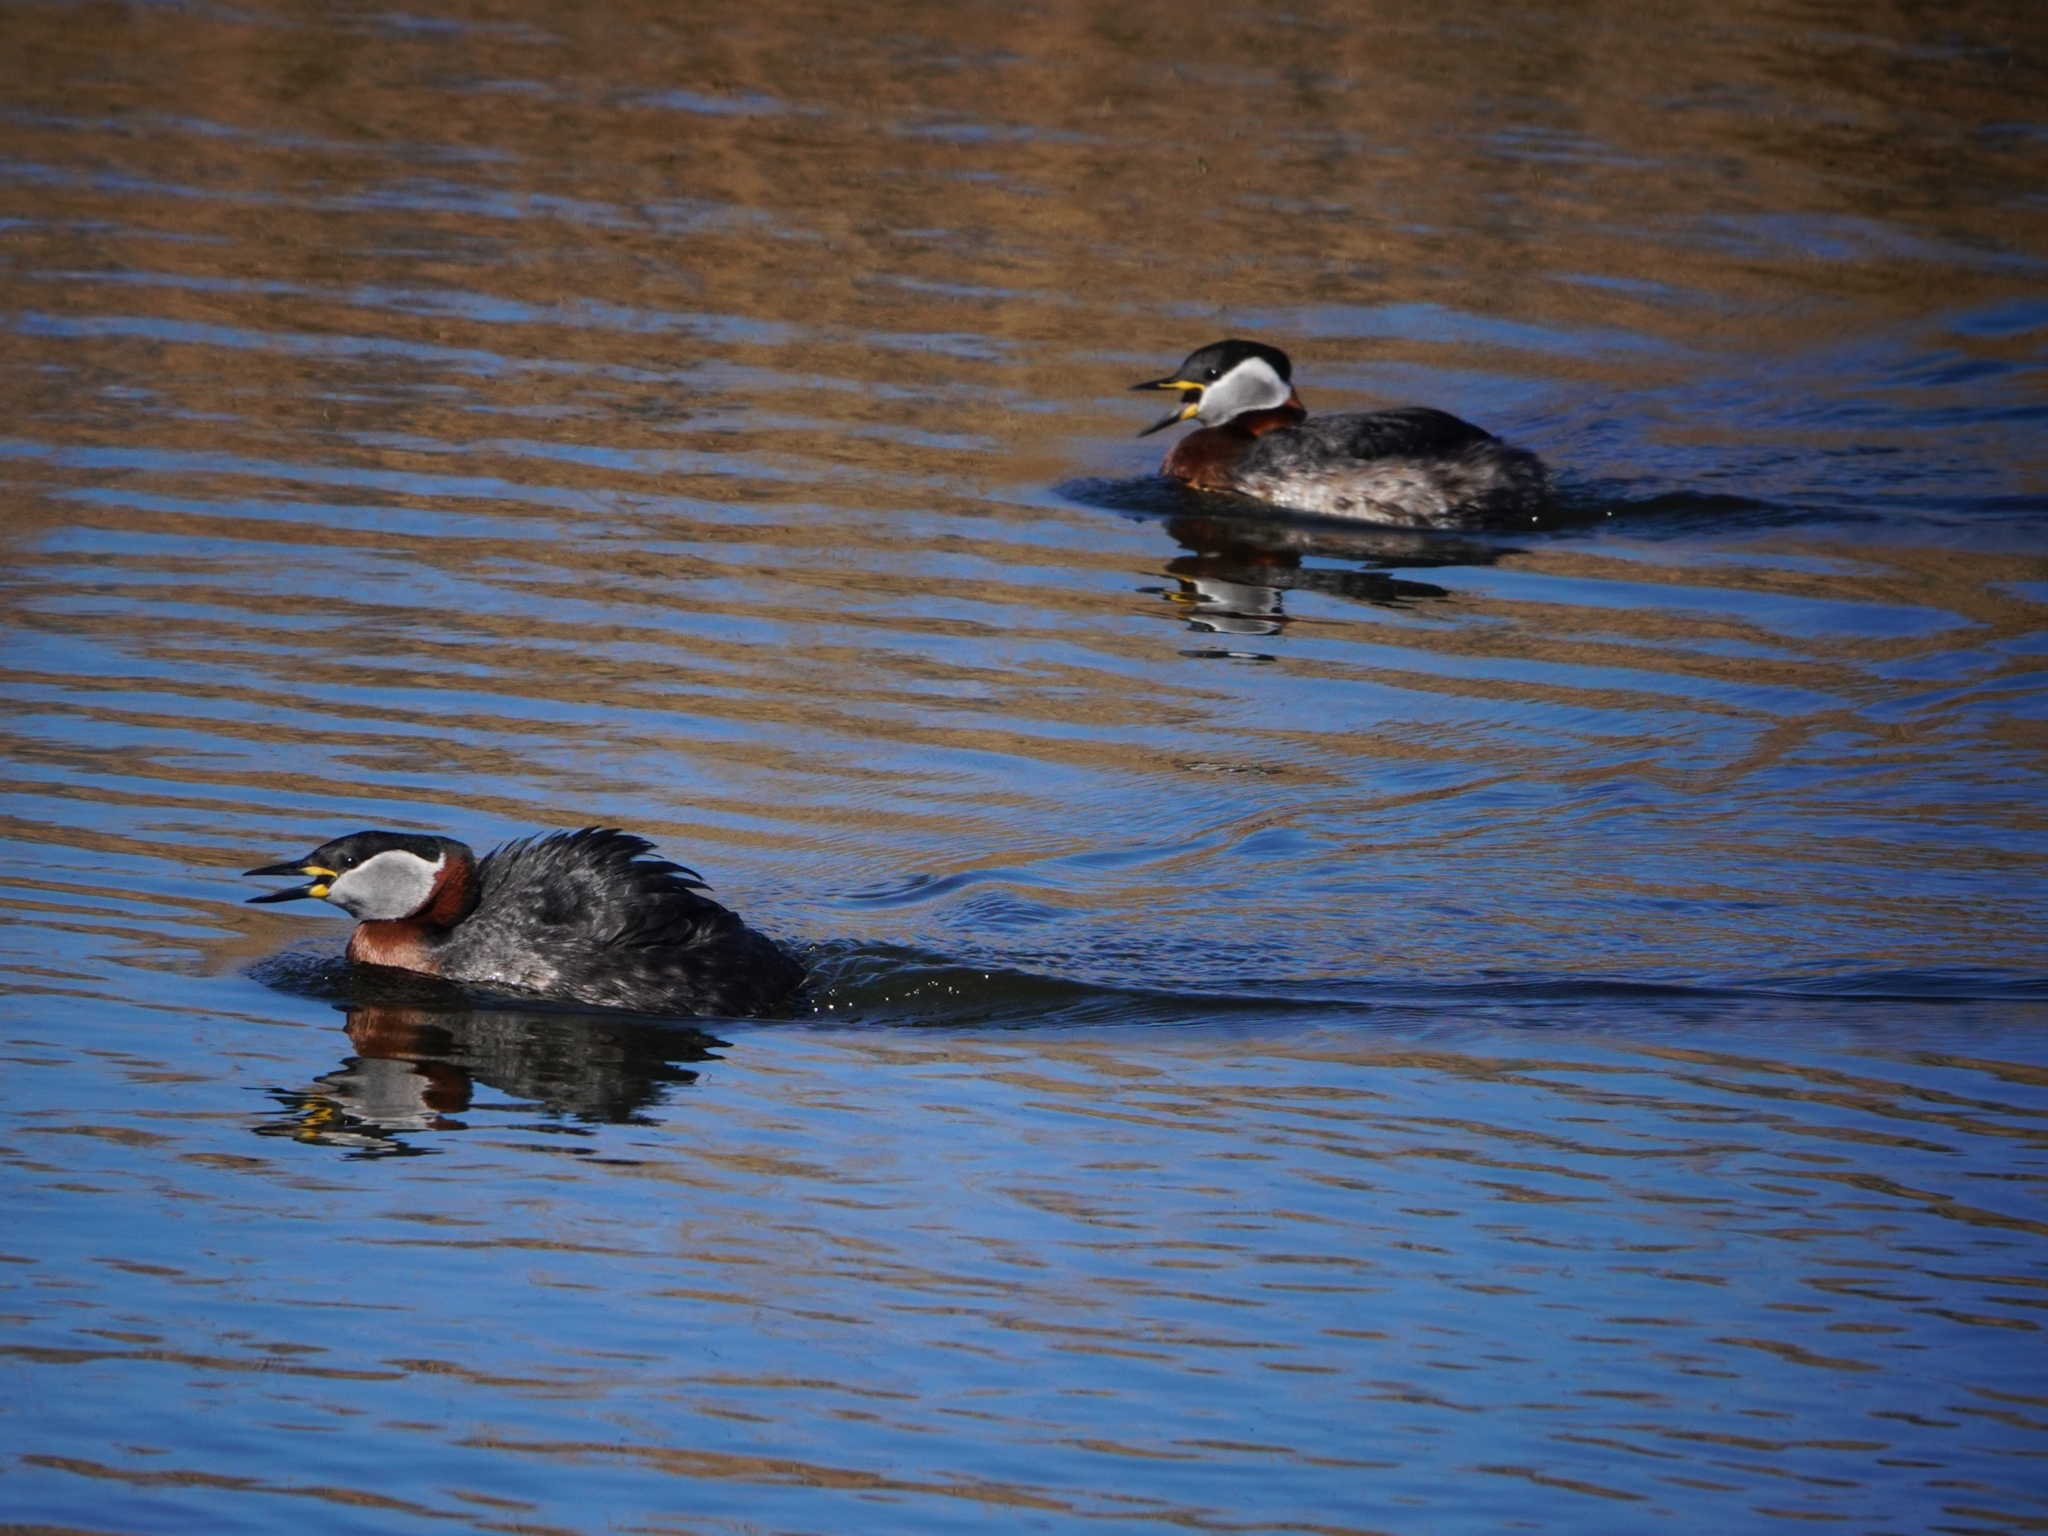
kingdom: Animalia
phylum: Chordata
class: Aves
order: Podicipediformes
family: Podicipedidae
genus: Podiceps
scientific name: Podiceps grisegena
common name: Red-necked grebe
